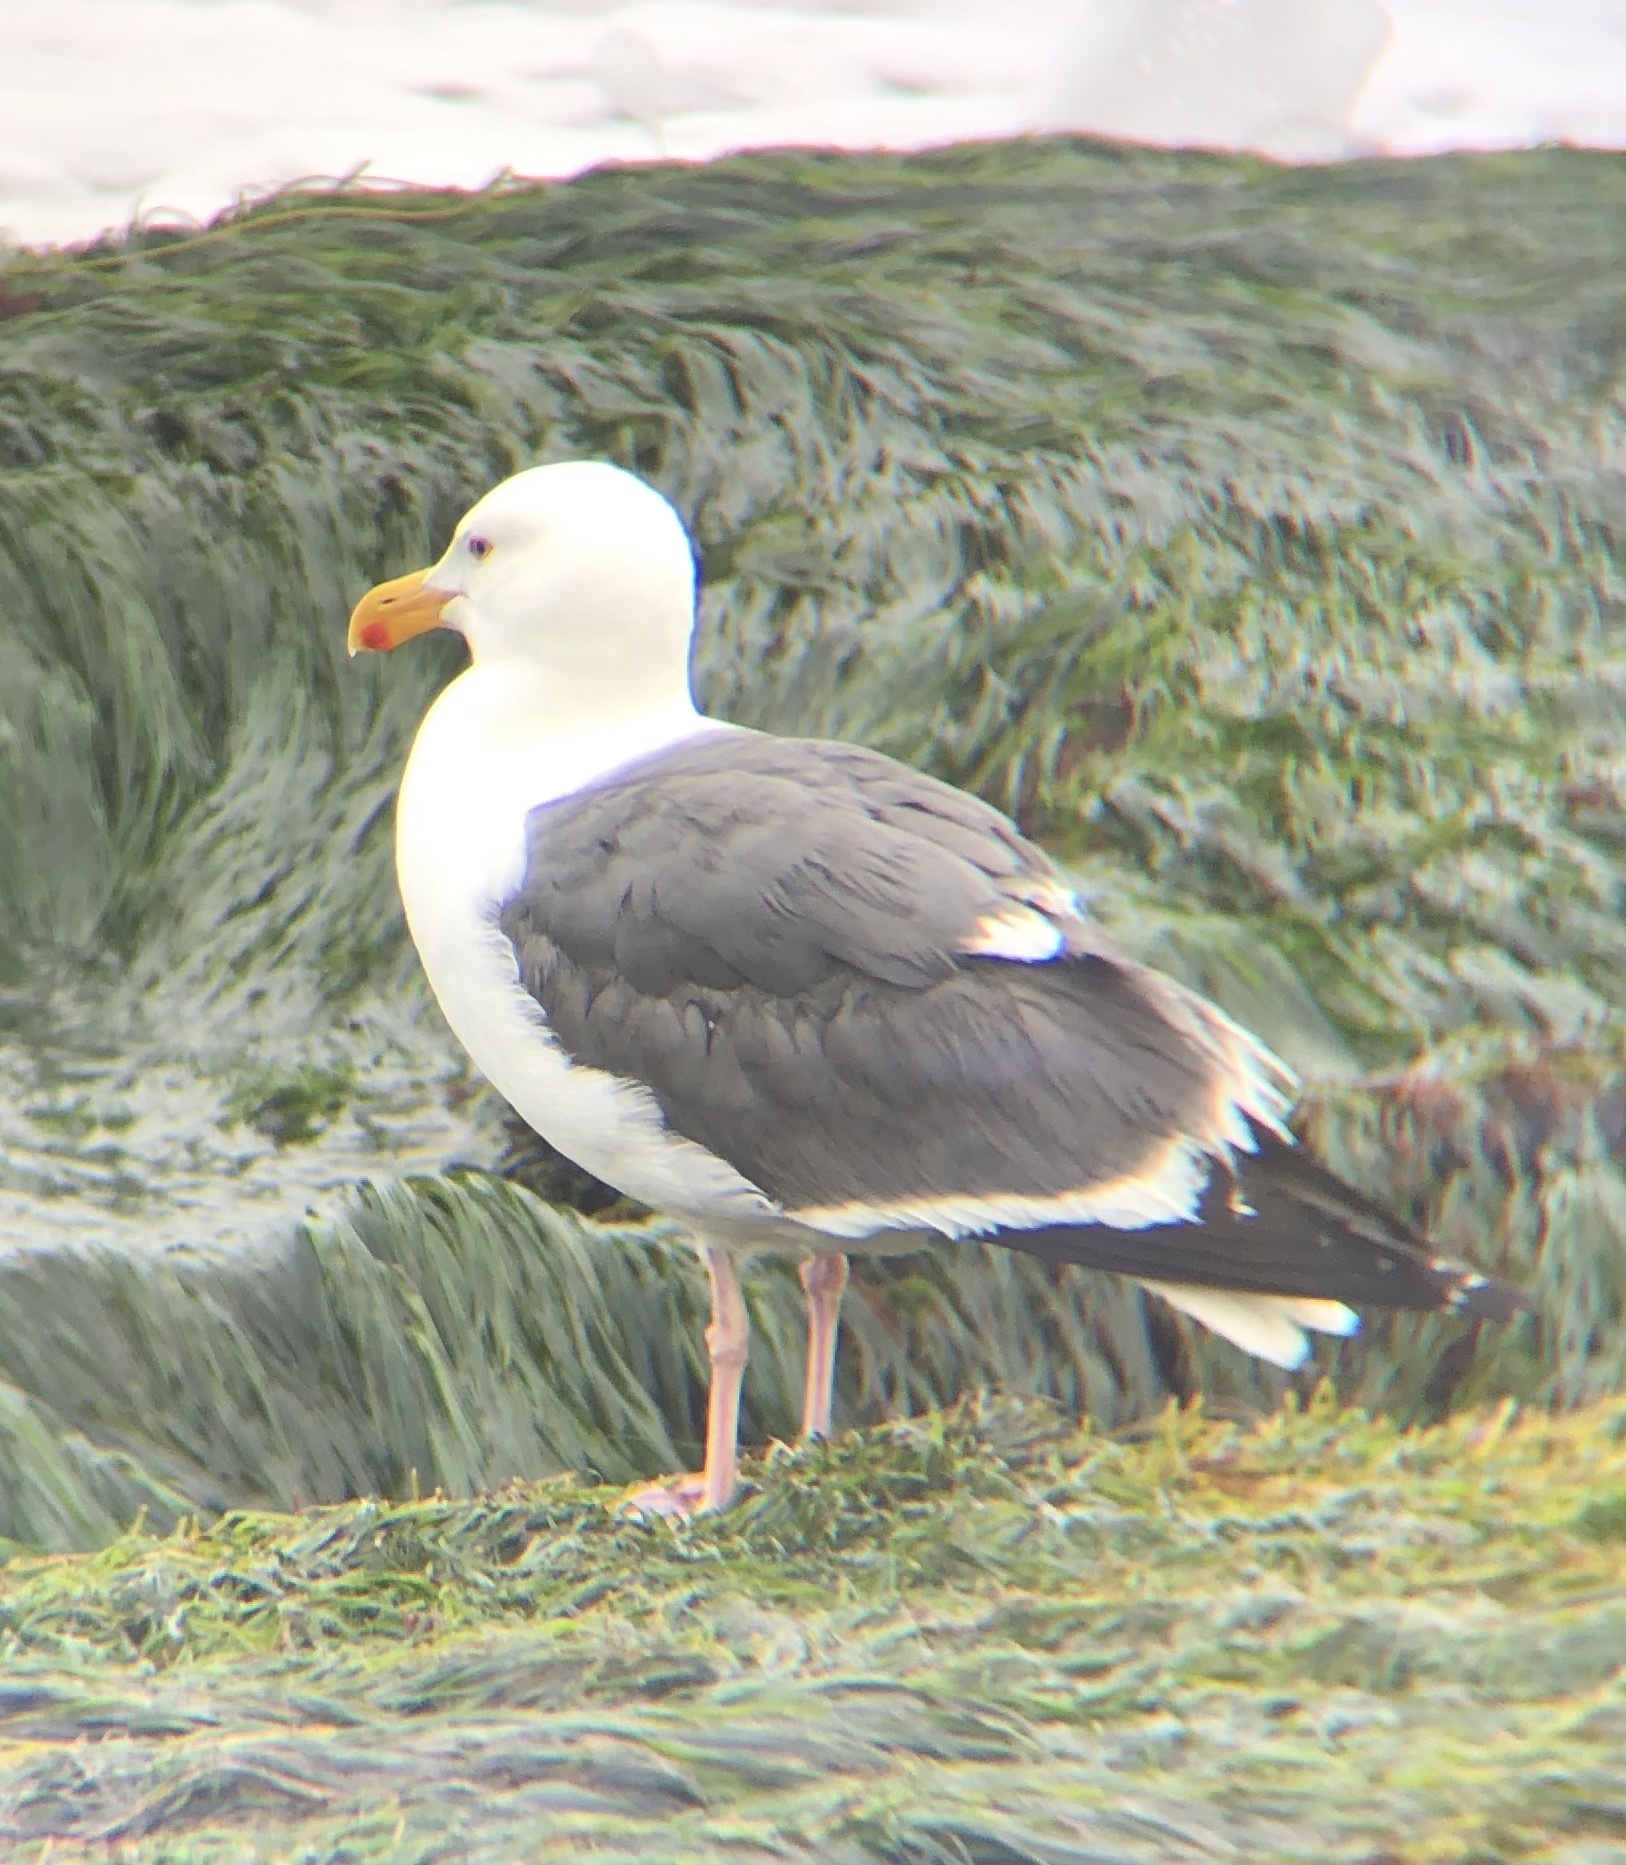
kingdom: Animalia
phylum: Chordata
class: Aves
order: Charadriiformes
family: Laridae
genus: Larus
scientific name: Larus occidentalis
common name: Western gull
